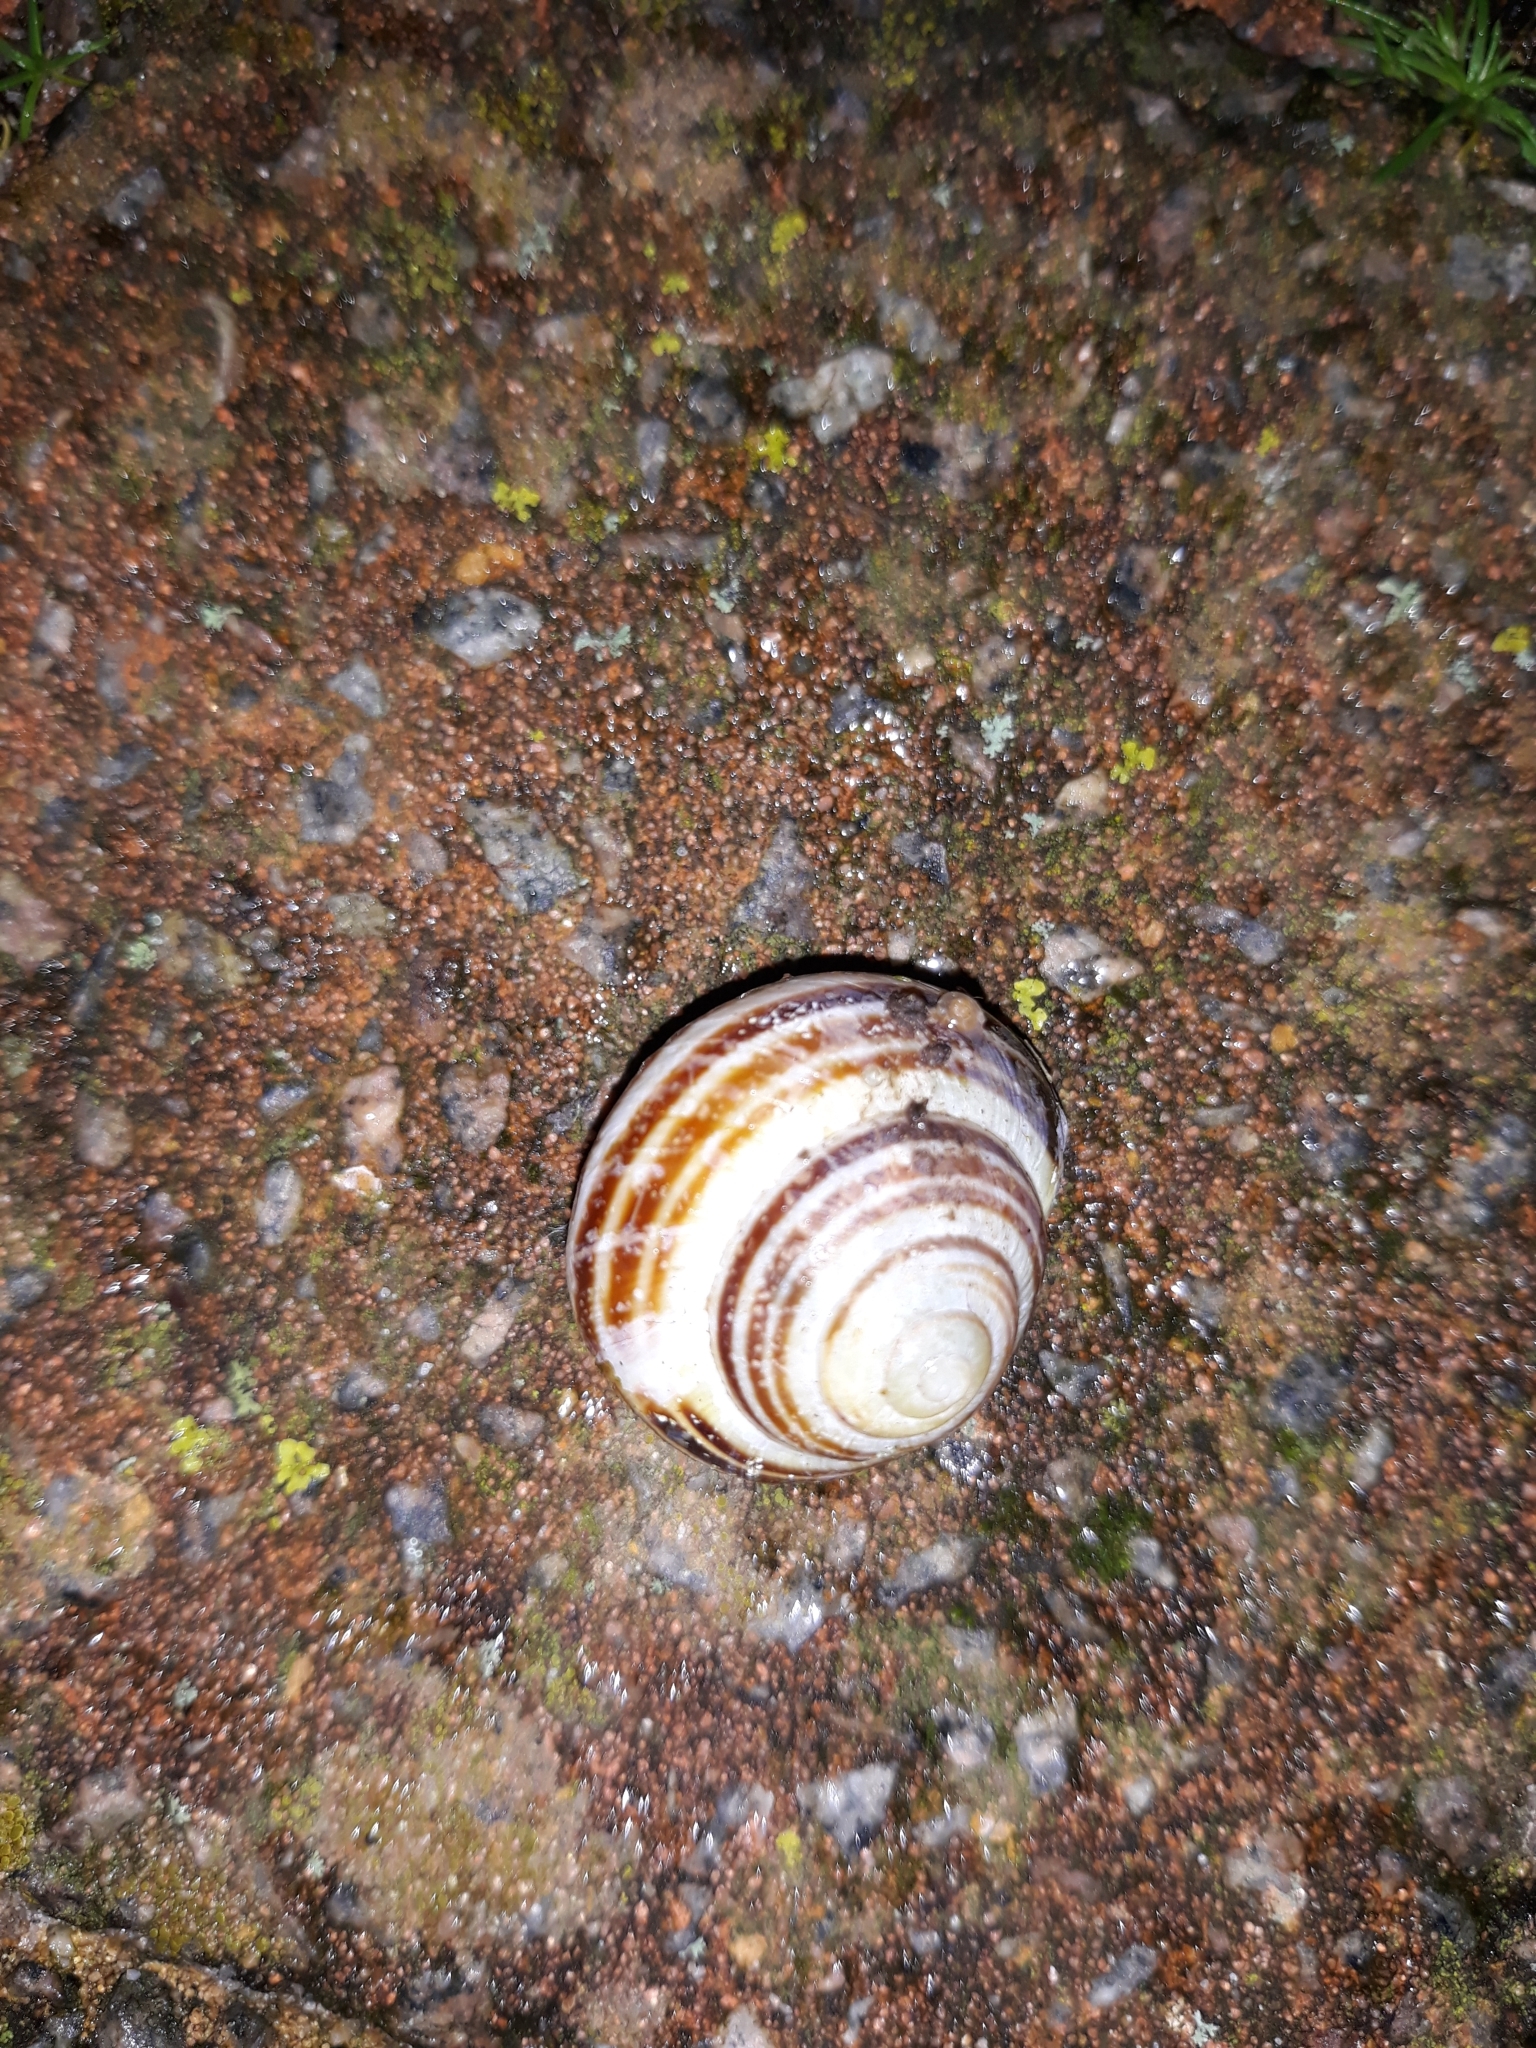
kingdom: Animalia
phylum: Mollusca
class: Gastropoda
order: Stylommatophora
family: Helicidae
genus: Cepaea
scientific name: Cepaea nemoralis
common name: Grovesnail
